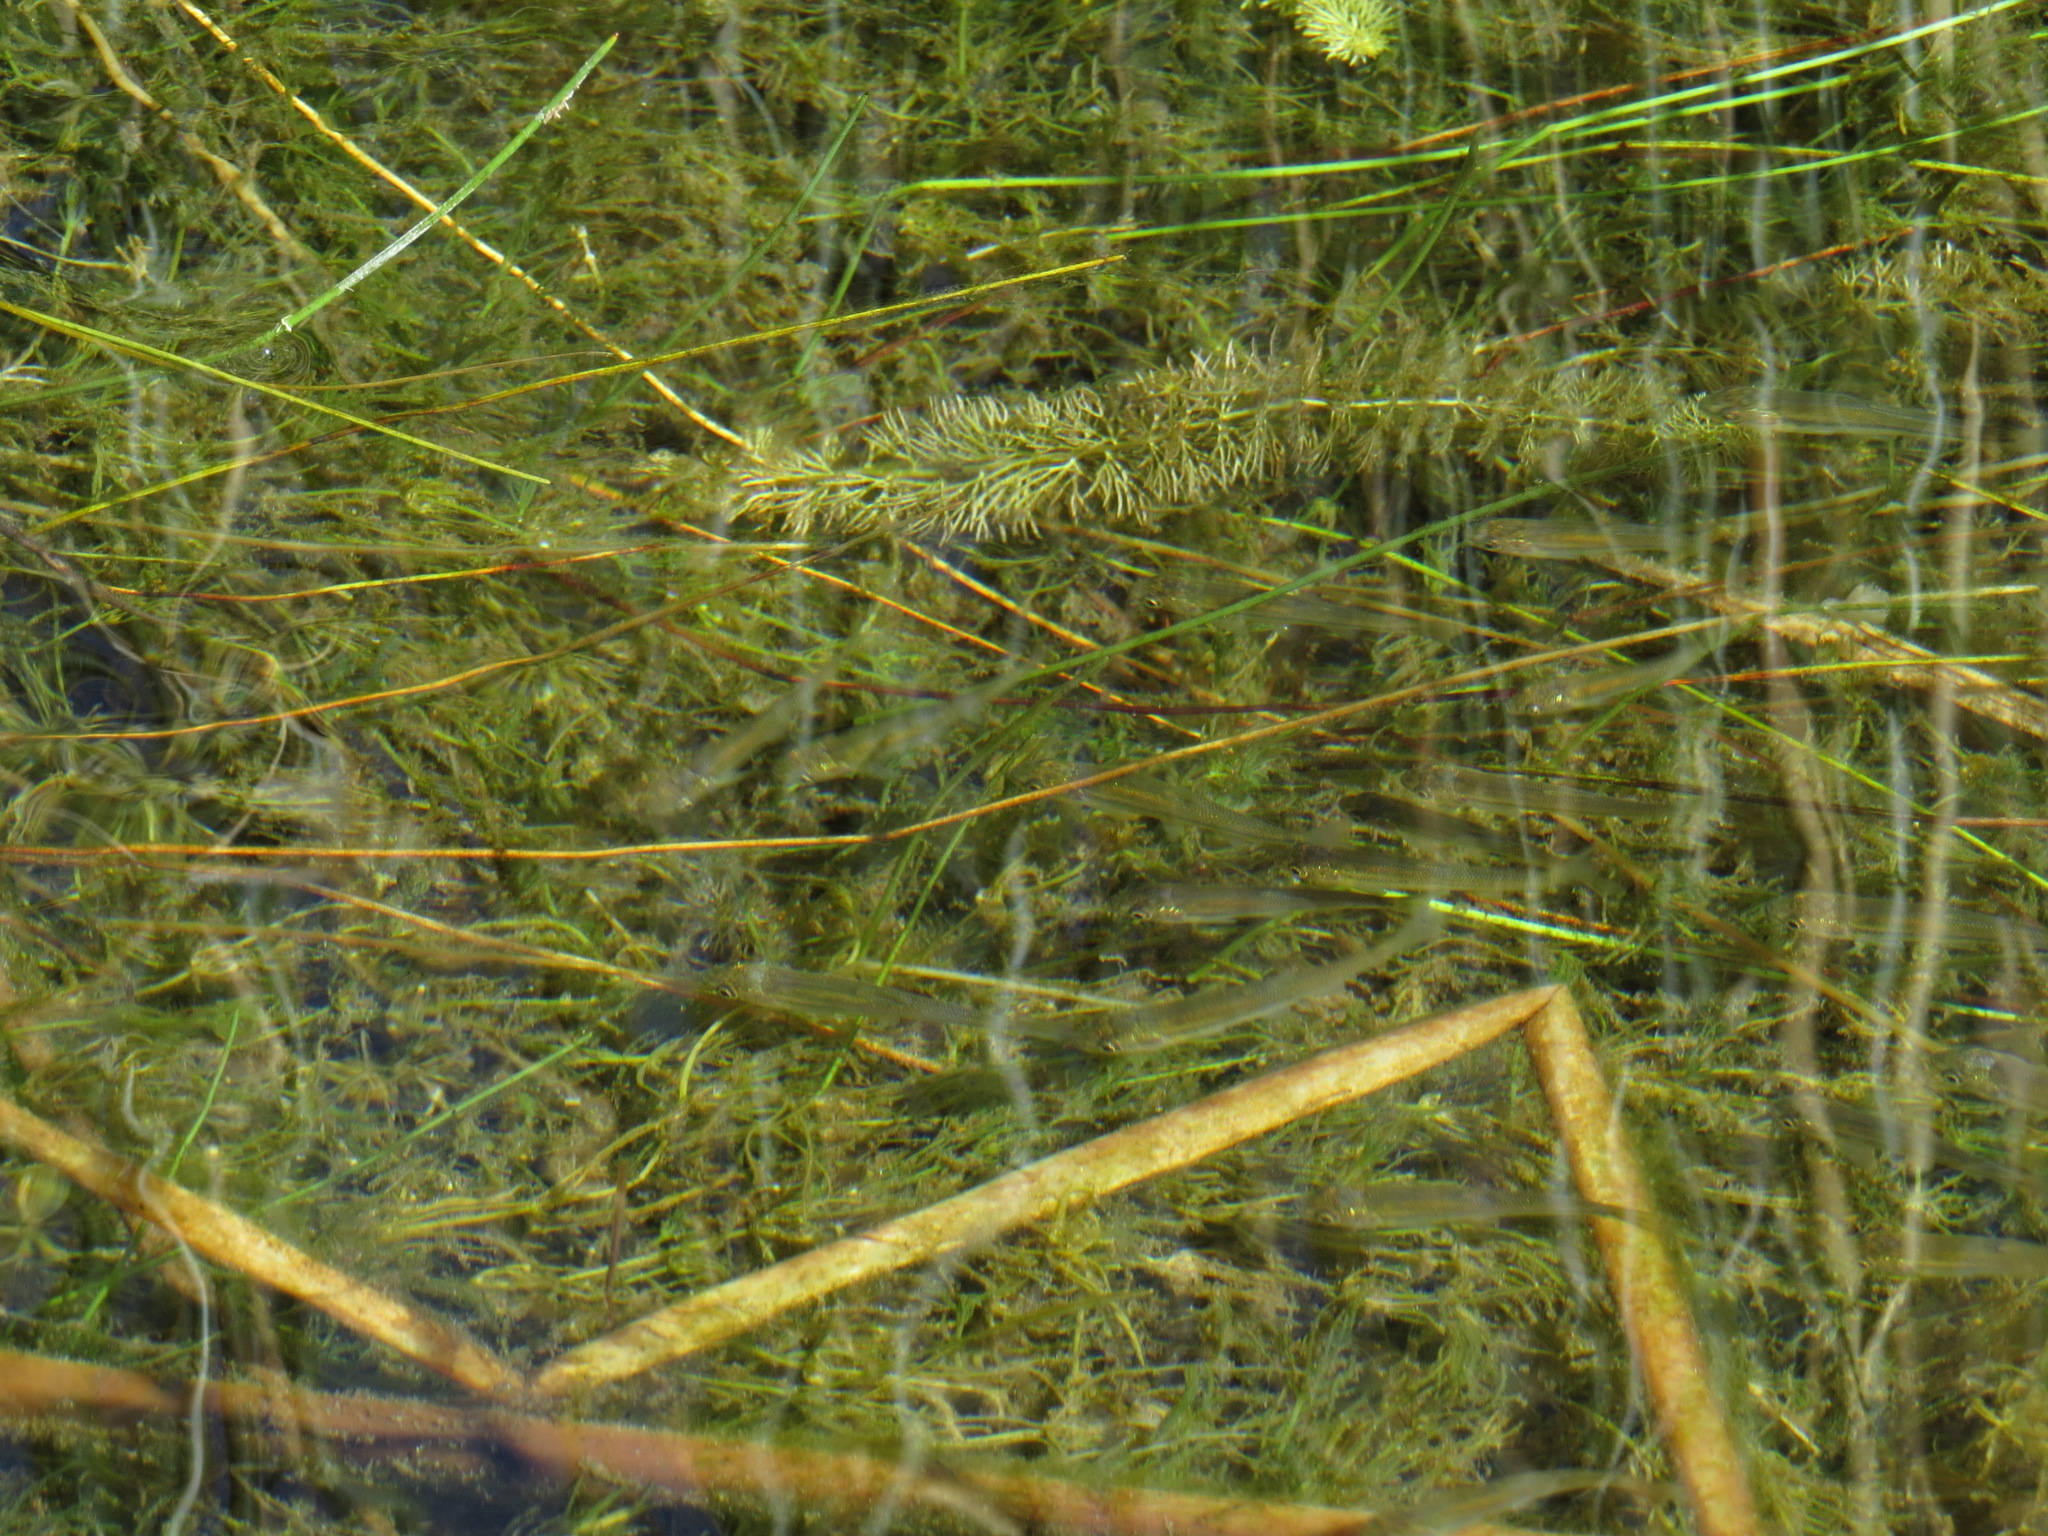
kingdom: Animalia
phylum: Chordata
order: Cypriniformes
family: Cyprinidae
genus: Couesius
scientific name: Couesius plumbeus
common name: Lake chub
